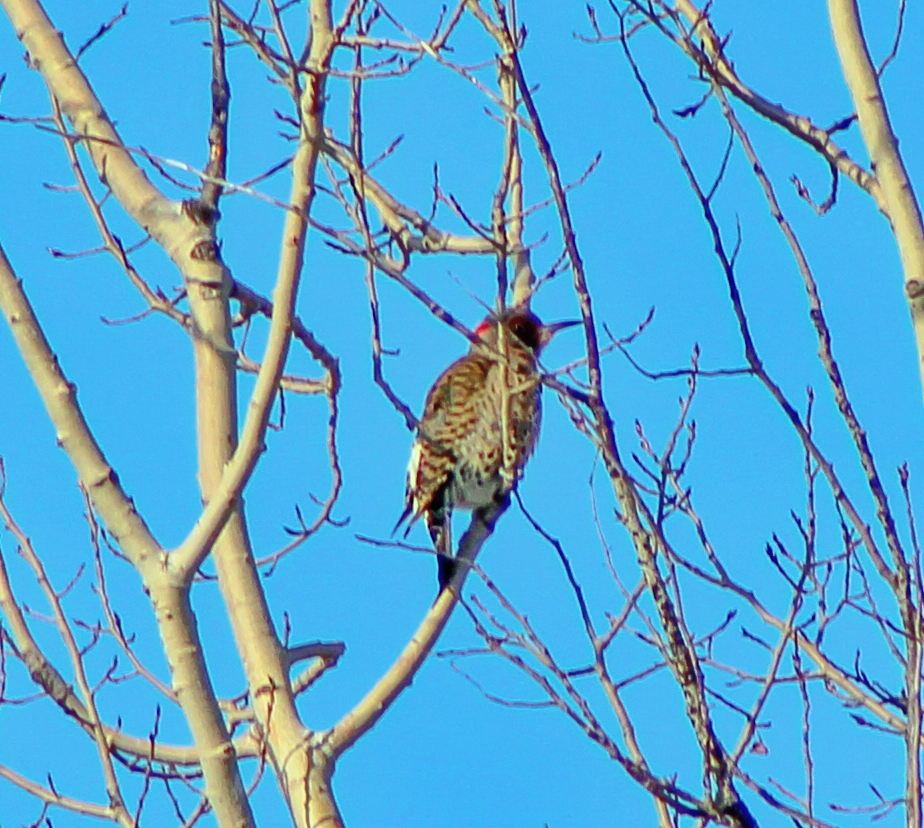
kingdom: Animalia
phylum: Chordata
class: Aves
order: Piciformes
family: Picidae
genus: Colaptes
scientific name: Colaptes auratus
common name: Northern flicker
